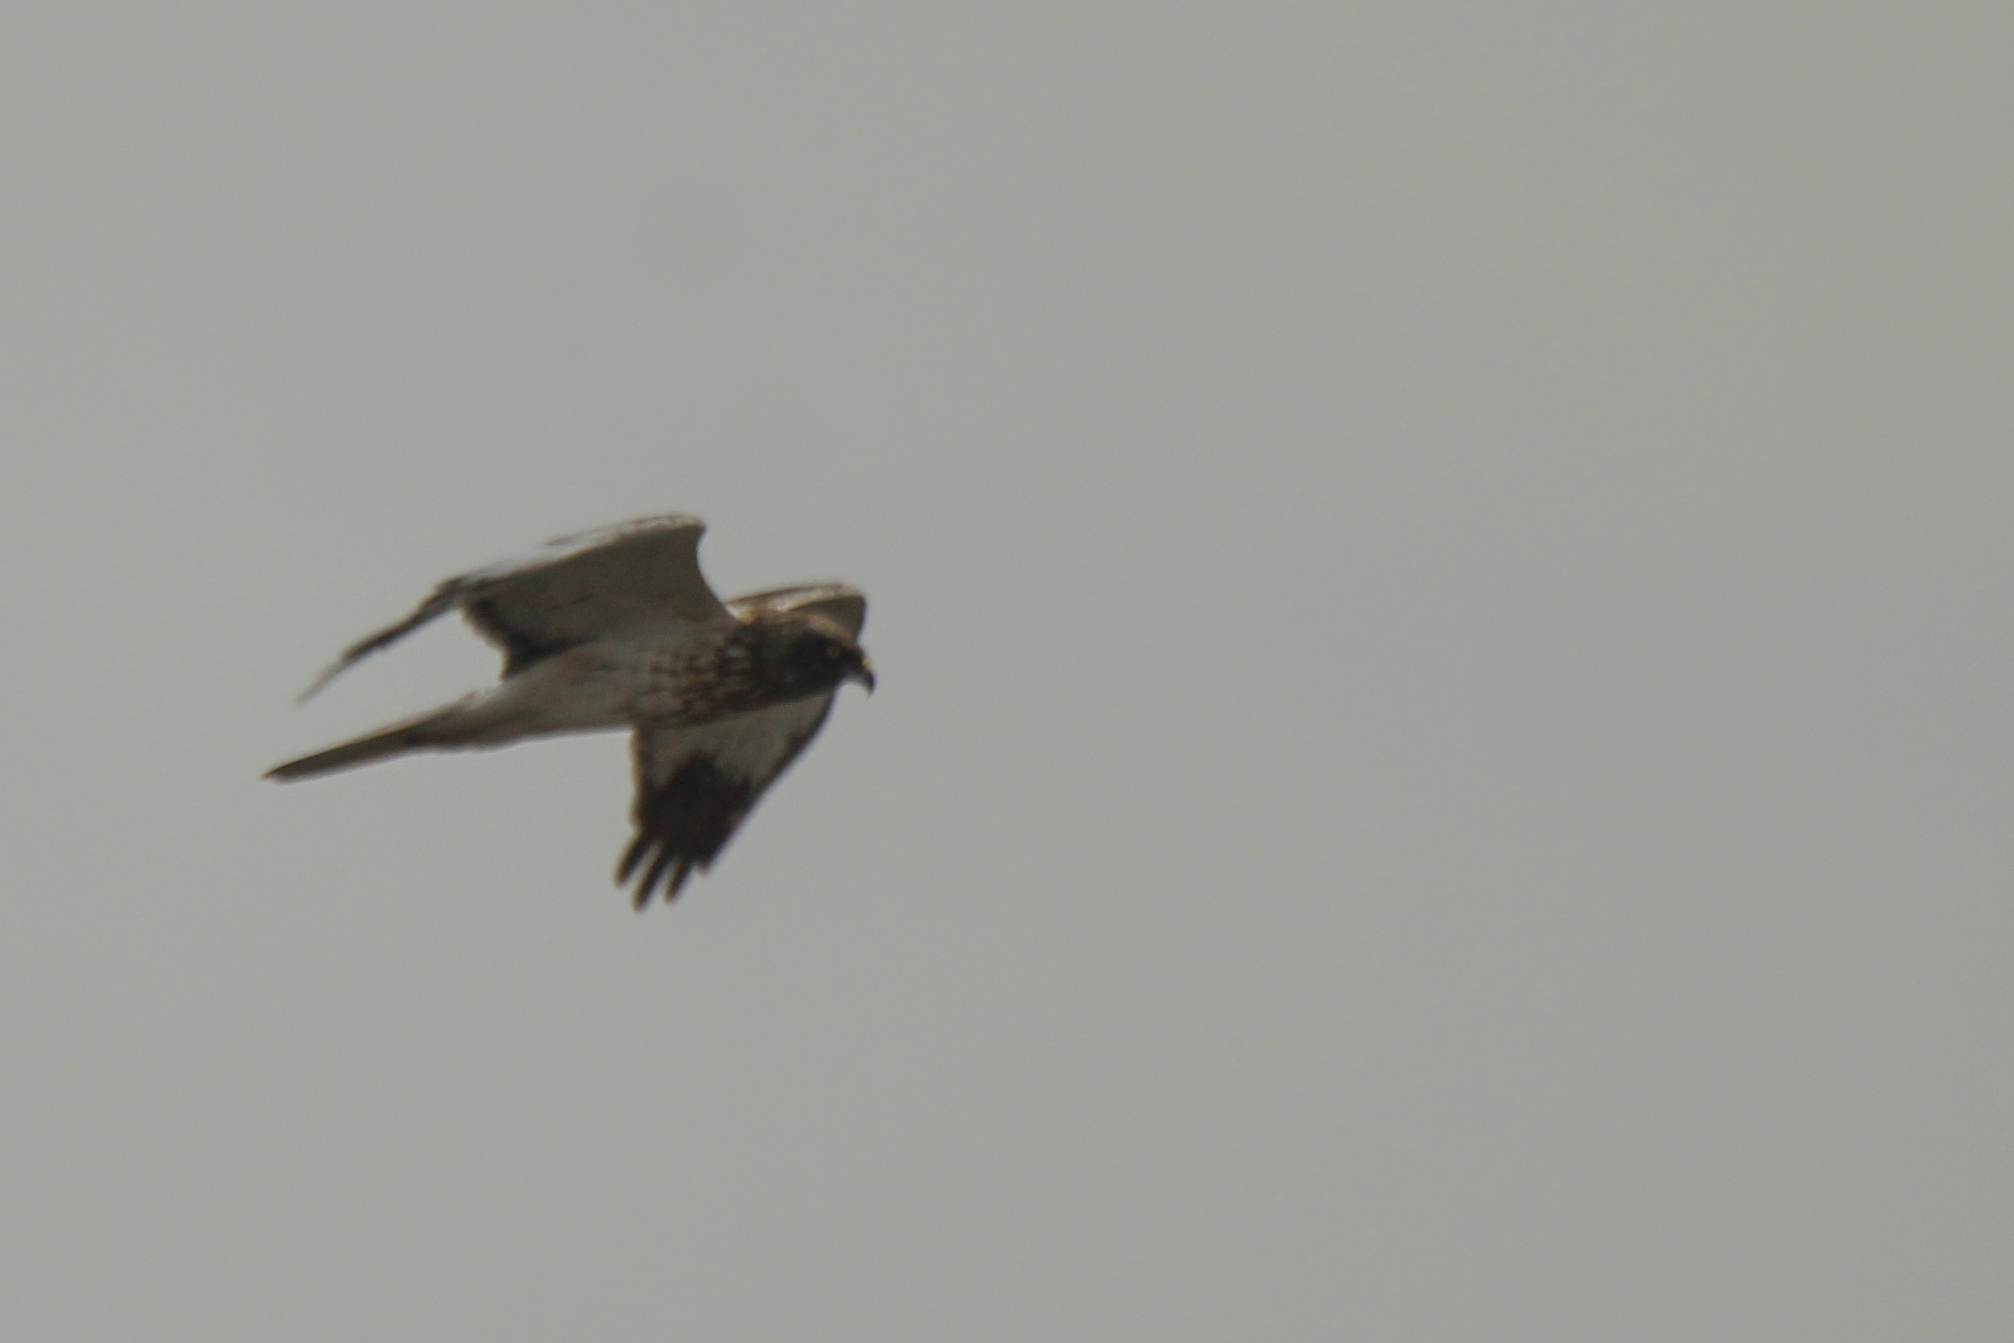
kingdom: Animalia
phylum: Chordata
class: Aves
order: Accipitriformes
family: Accipitridae
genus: Circus
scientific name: Circus spilonotus
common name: Eastern marsh-harrier
